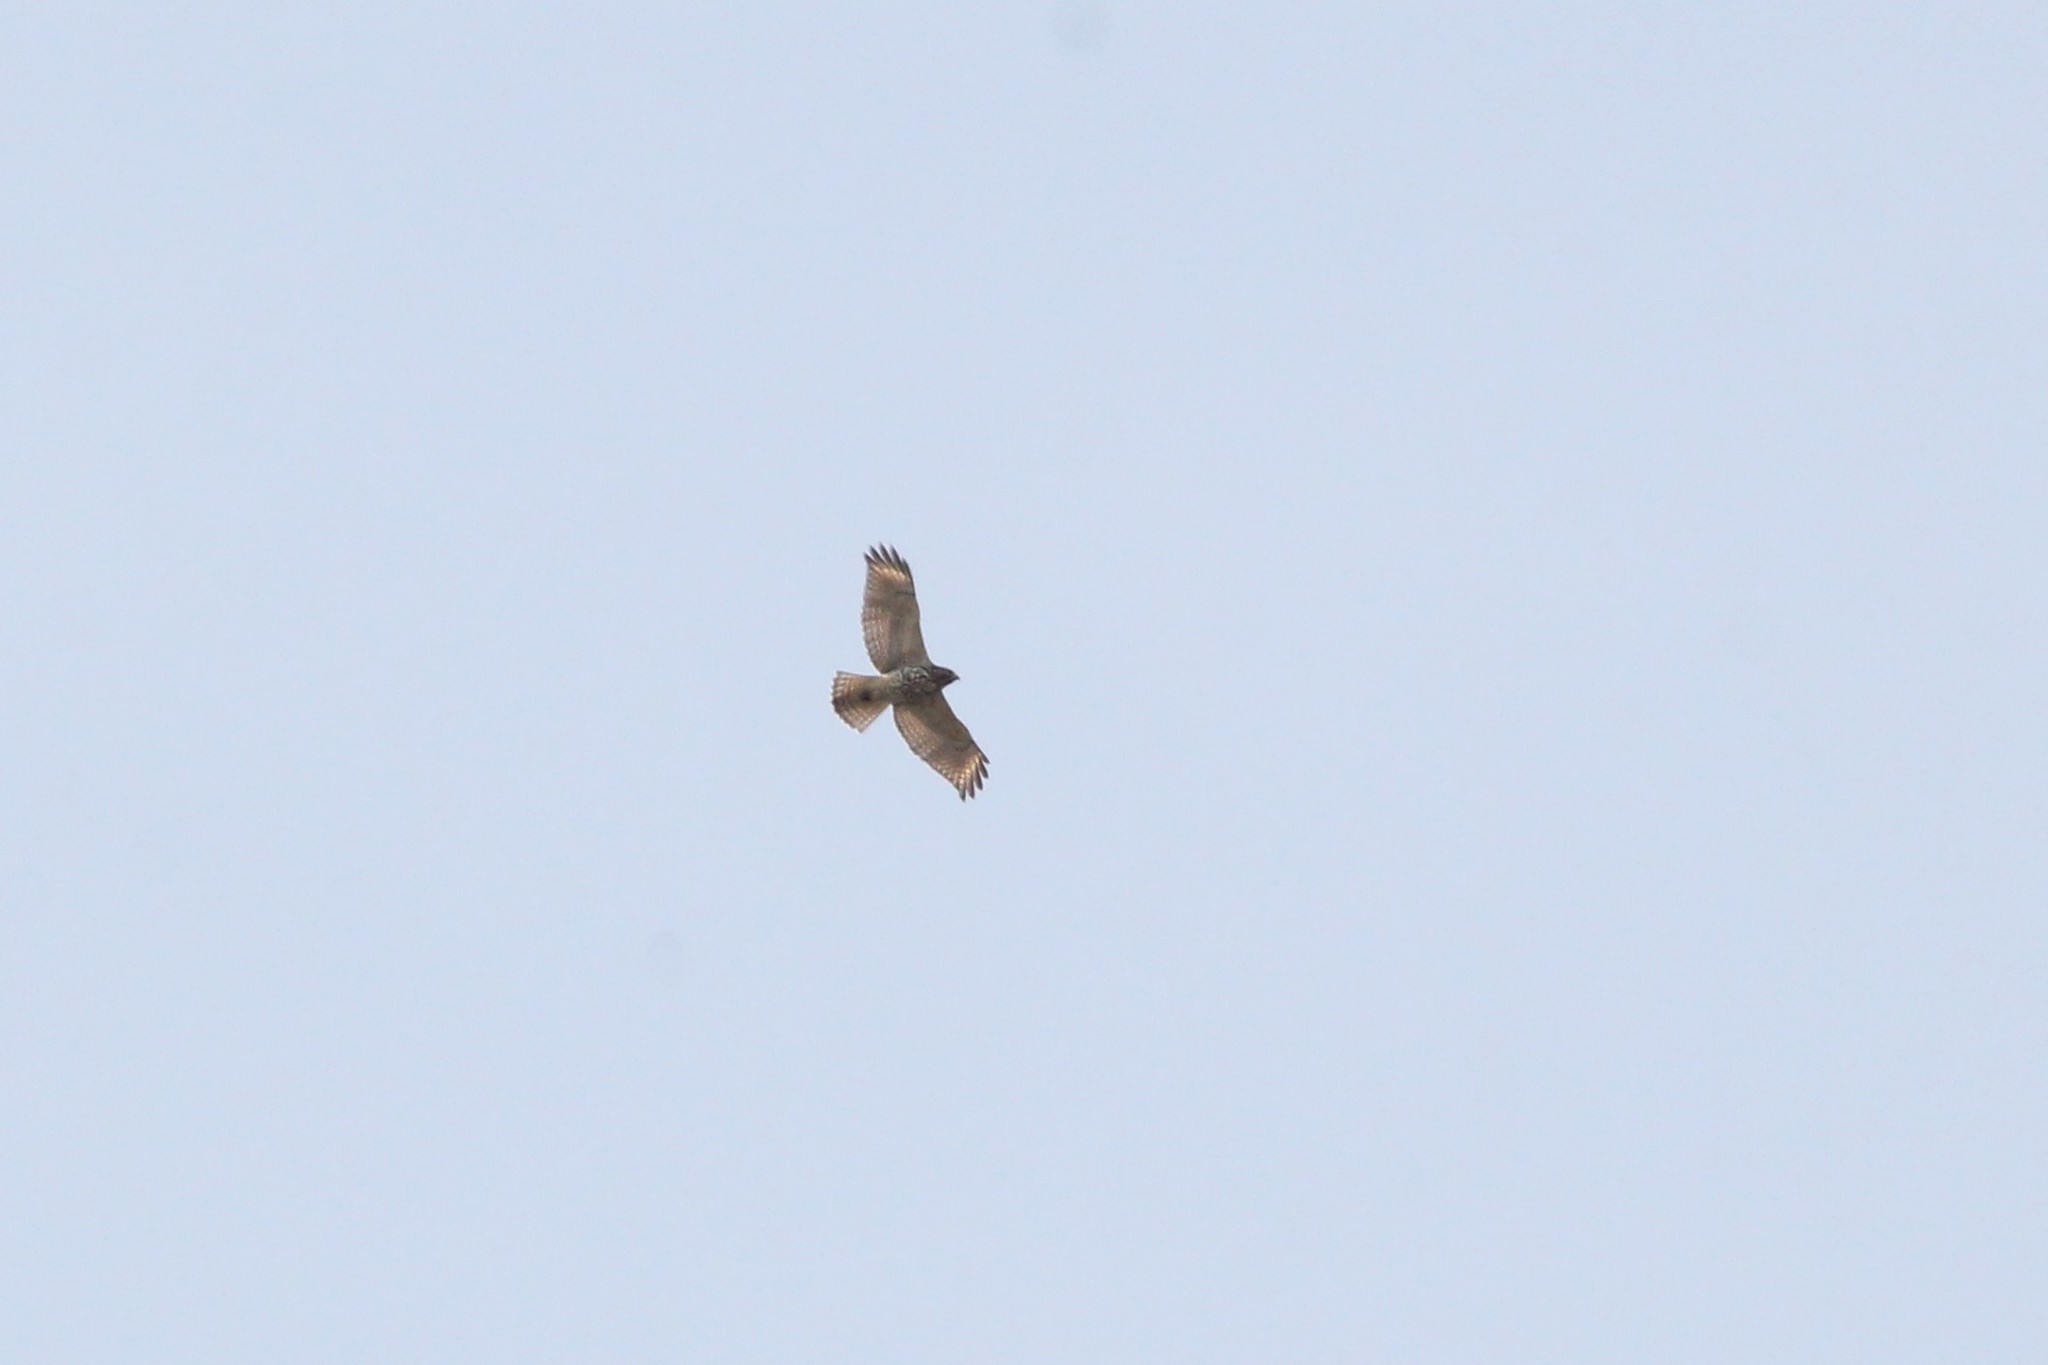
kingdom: Animalia
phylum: Chordata
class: Aves
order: Accipitriformes
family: Accipitridae
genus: Buteo
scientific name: Buteo lineatus
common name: Red-shouldered hawk
